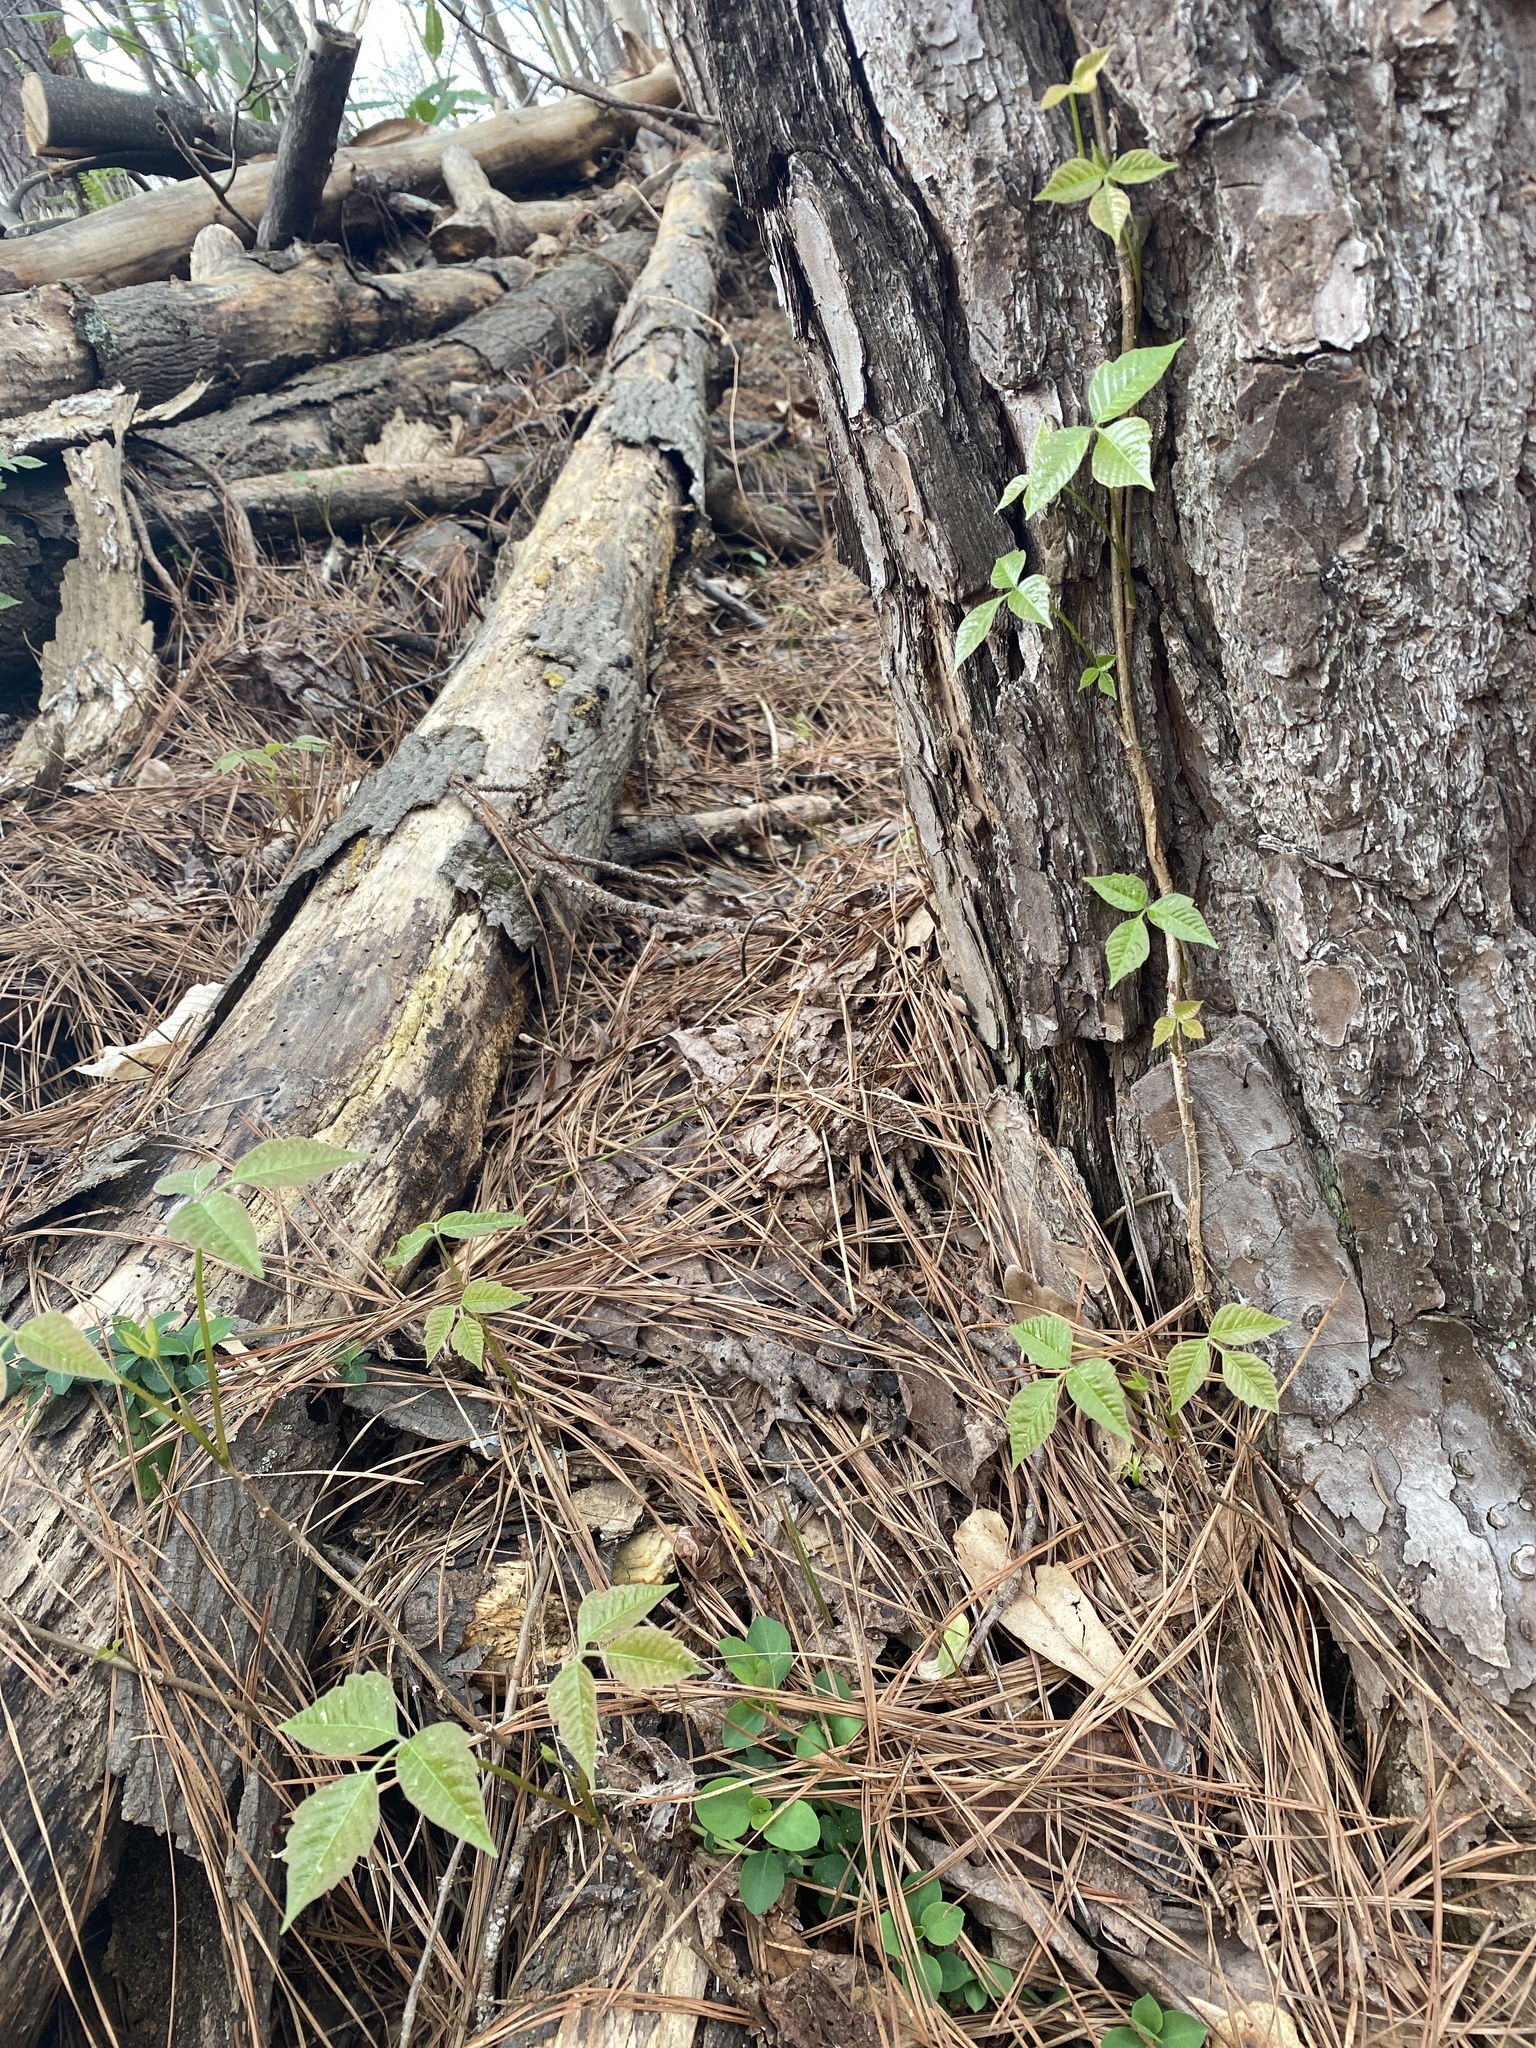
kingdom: Plantae
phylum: Tracheophyta
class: Magnoliopsida
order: Sapindales
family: Anacardiaceae
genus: Toxicodendron
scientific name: Toxicodendron radicans
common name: Poison ivy
